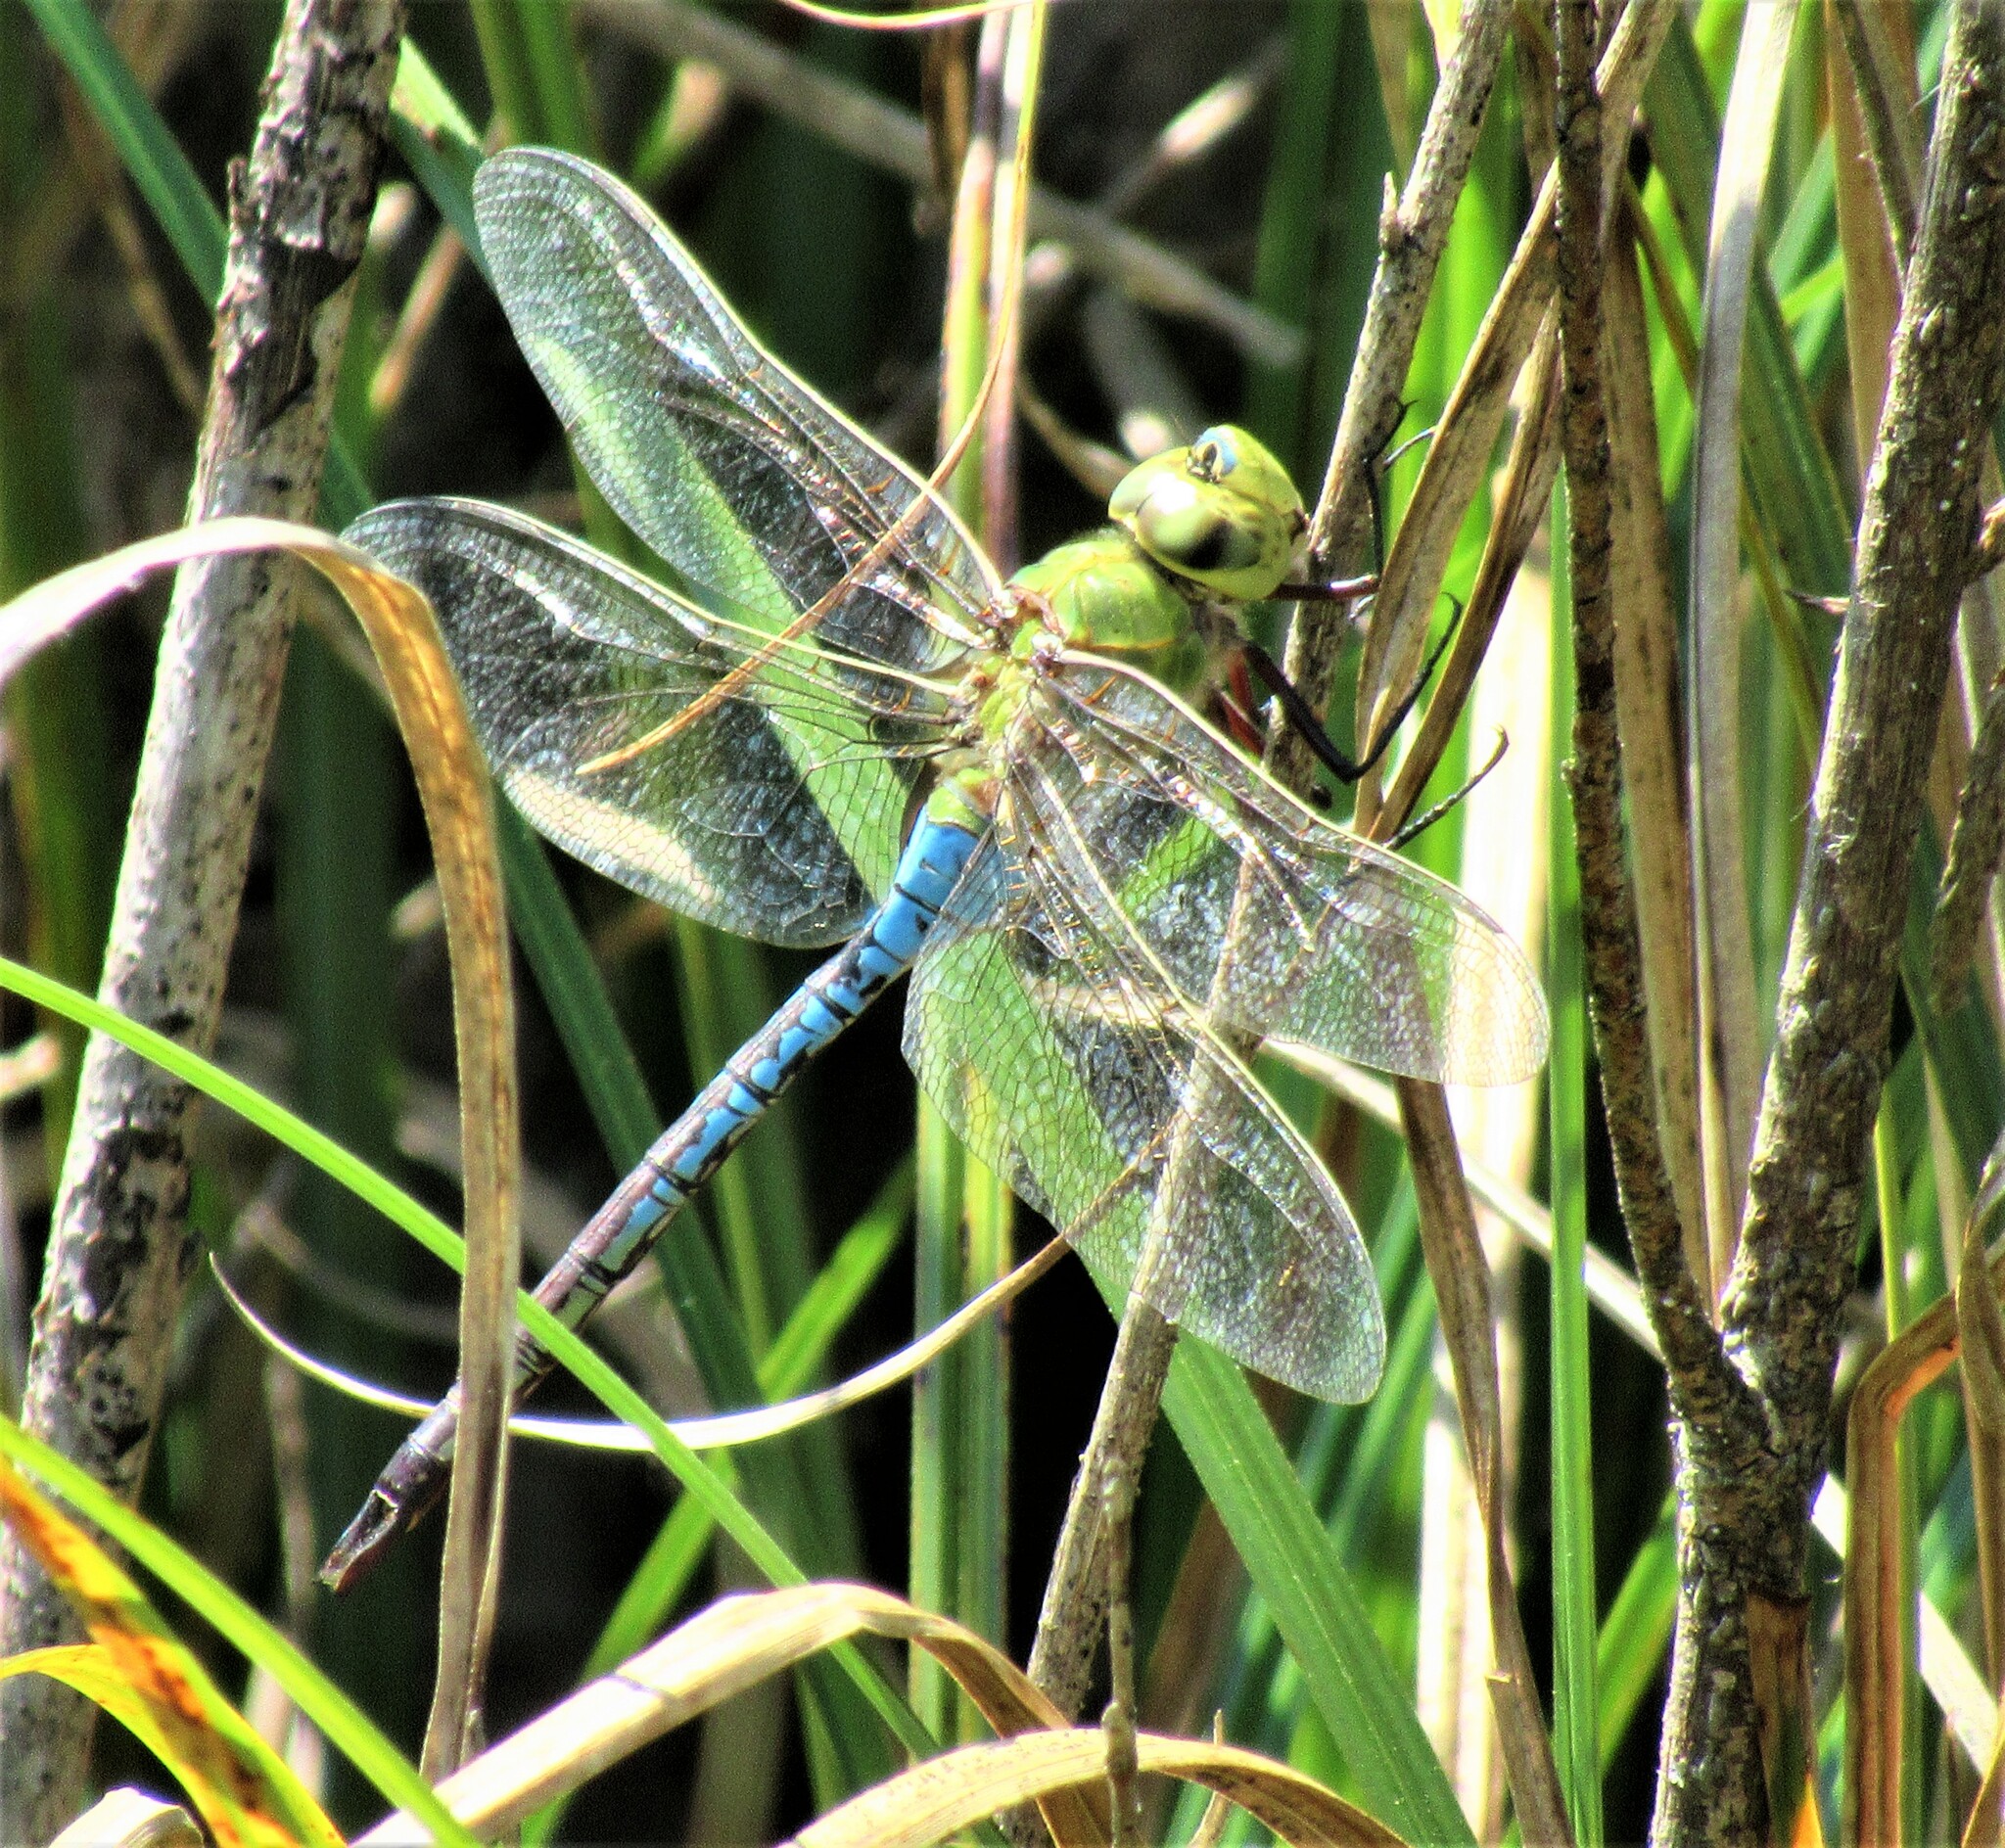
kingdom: Animalia
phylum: Arthropoda
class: Insecta
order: Odonata
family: Aeshnidae
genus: Anax
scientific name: Anax junius
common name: Common green darner
